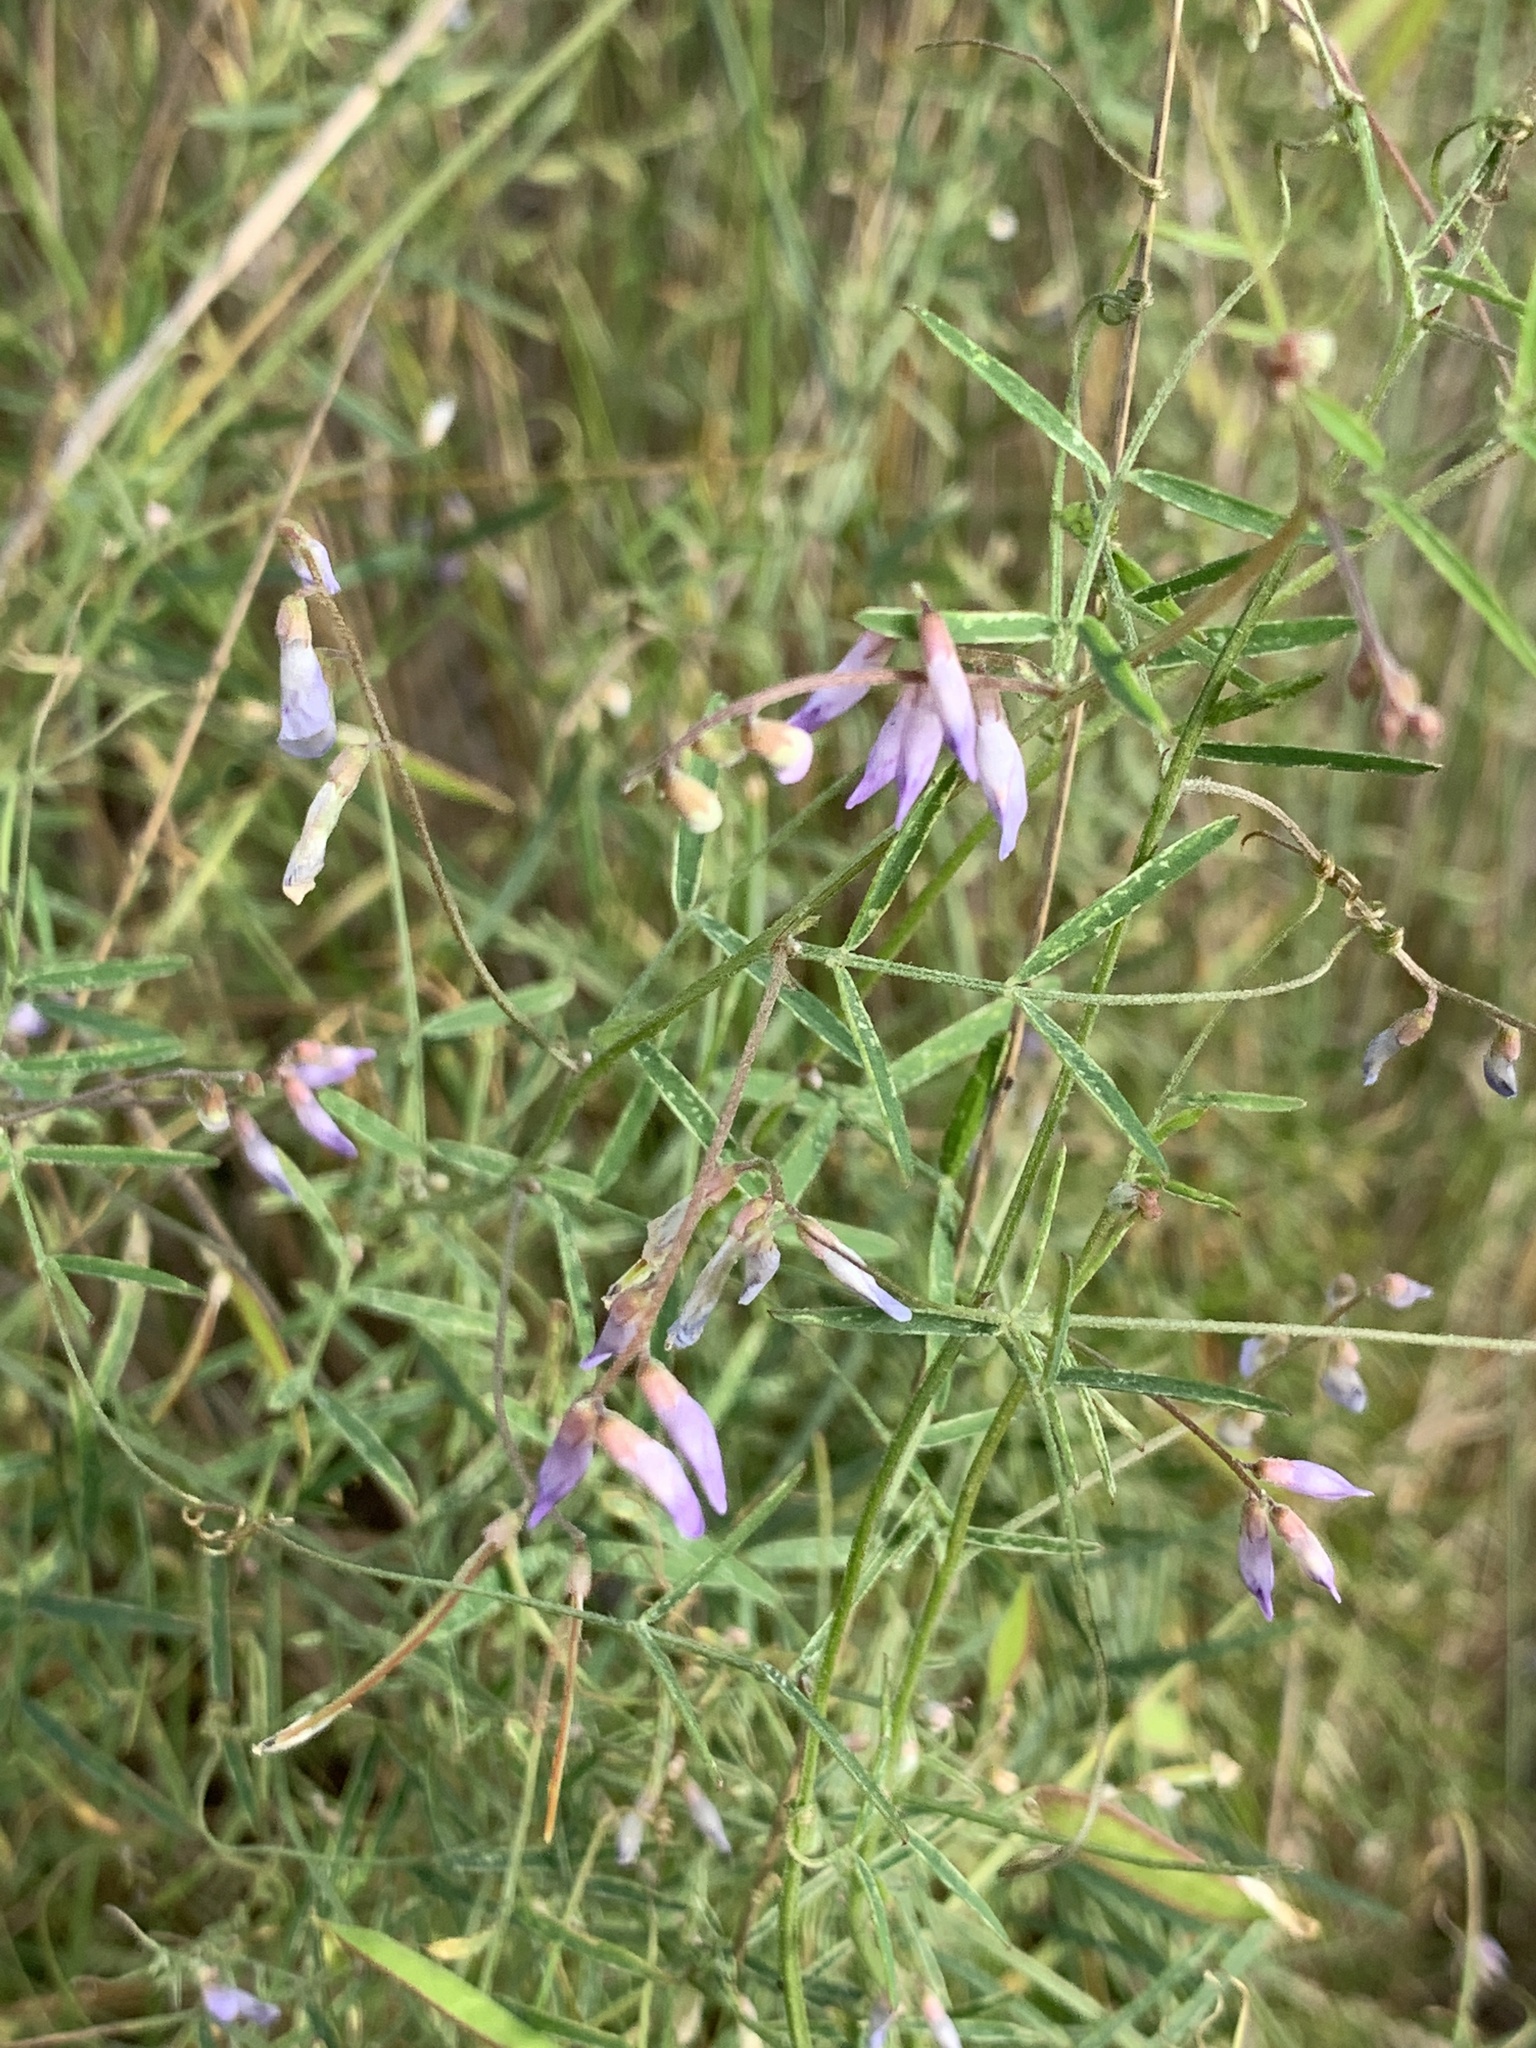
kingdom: Plantae
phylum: Tracheophyta
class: Magnoliopsida
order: Fabales
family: Fabaceae
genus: Vicia
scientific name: Vicia acutifolia
